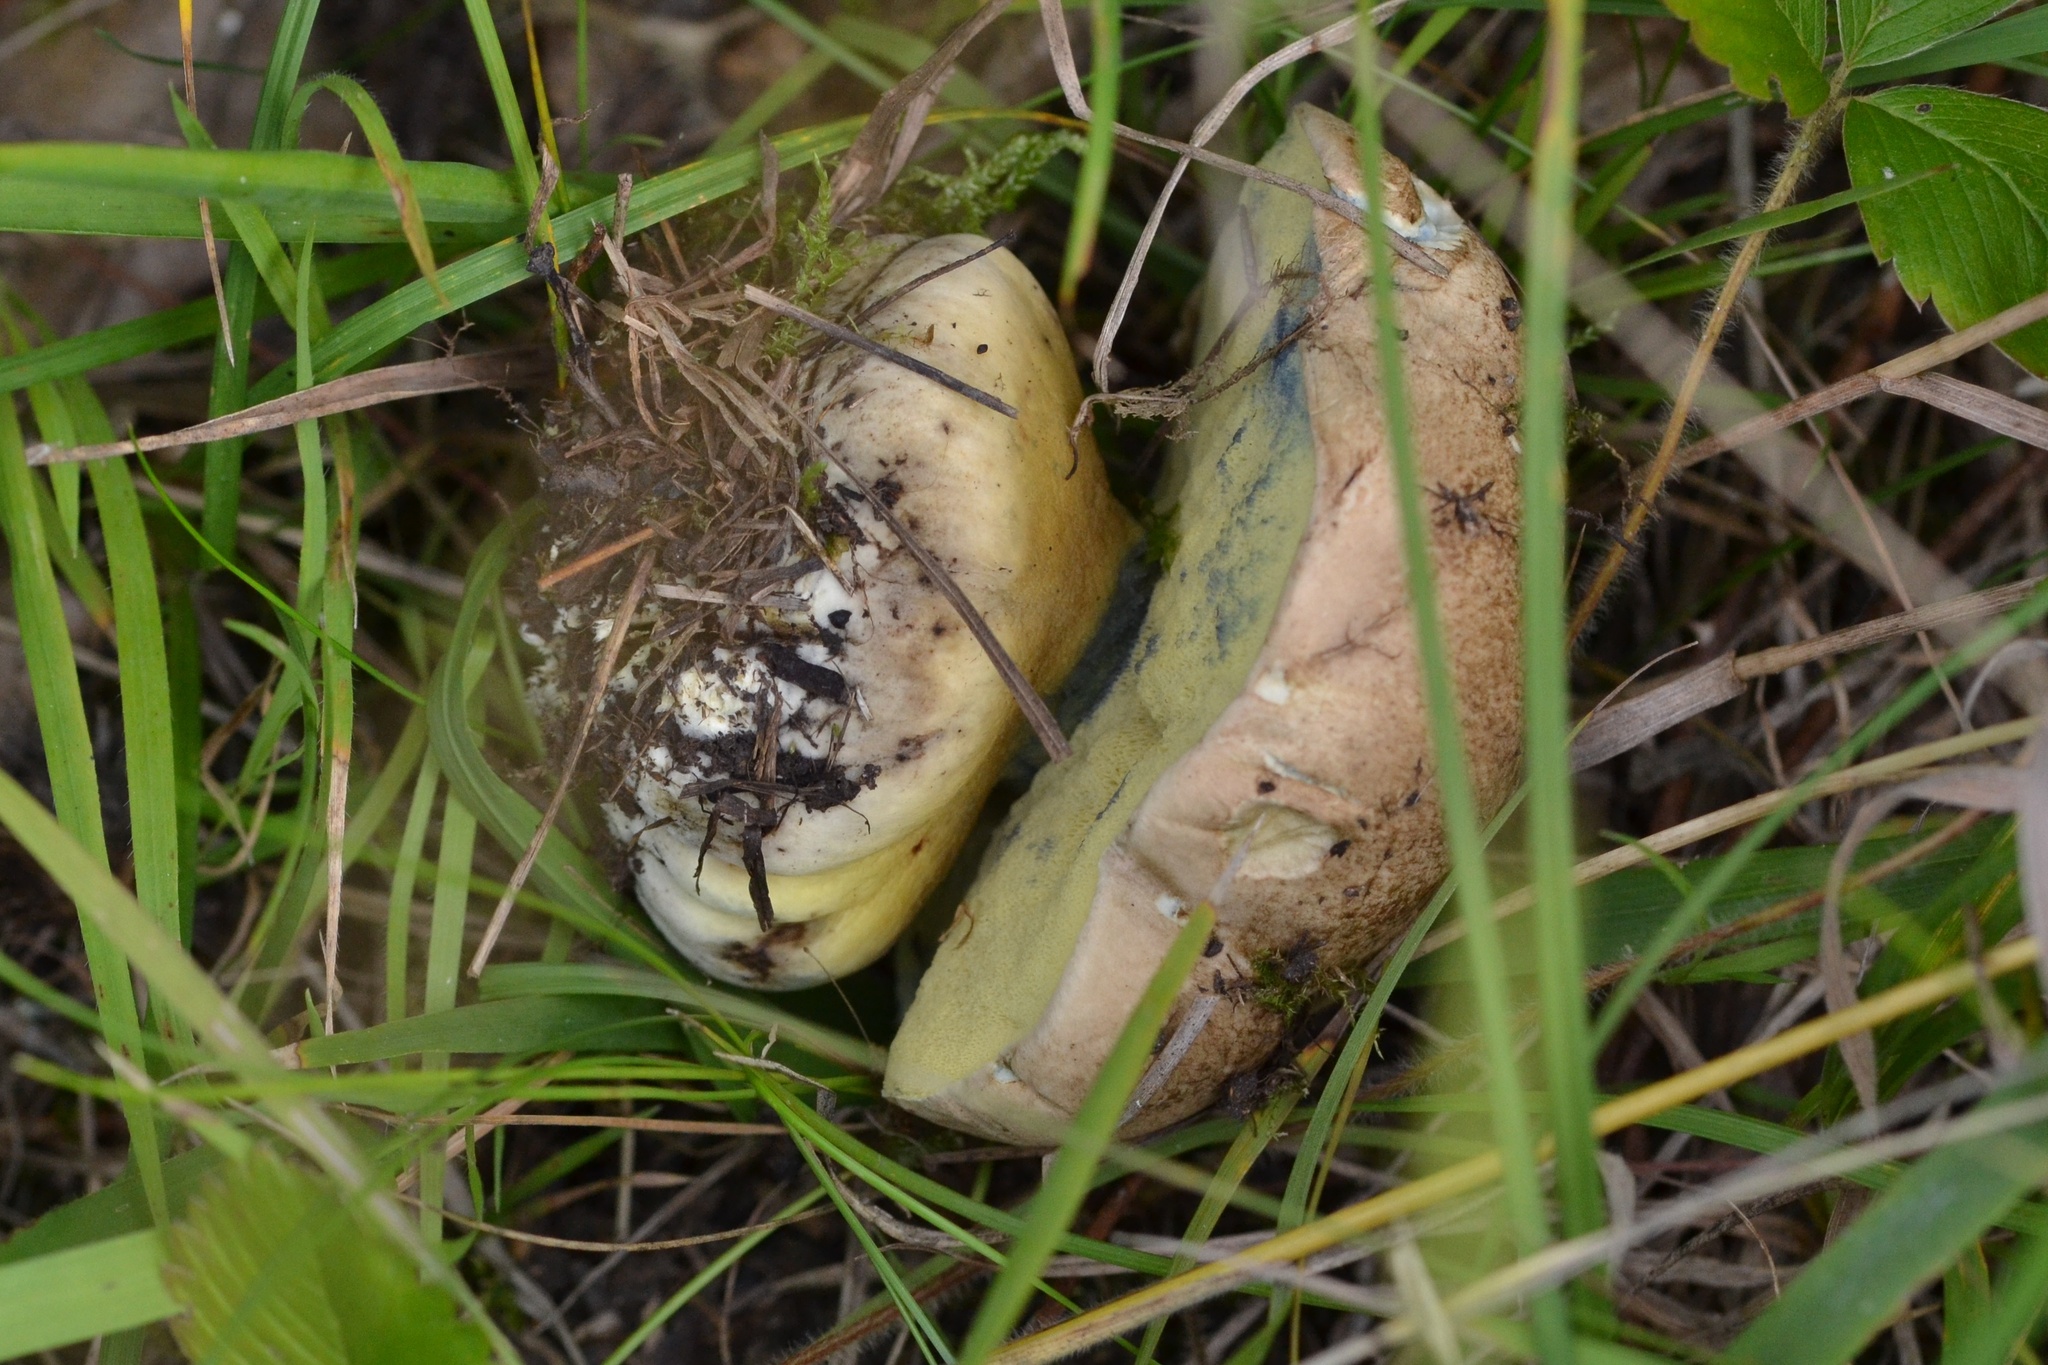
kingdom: Fungi
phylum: Basidiomycota
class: Agaricomycetes
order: Boletales
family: Boletaceae
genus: Caloboletus
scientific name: Caloboletus radicans
